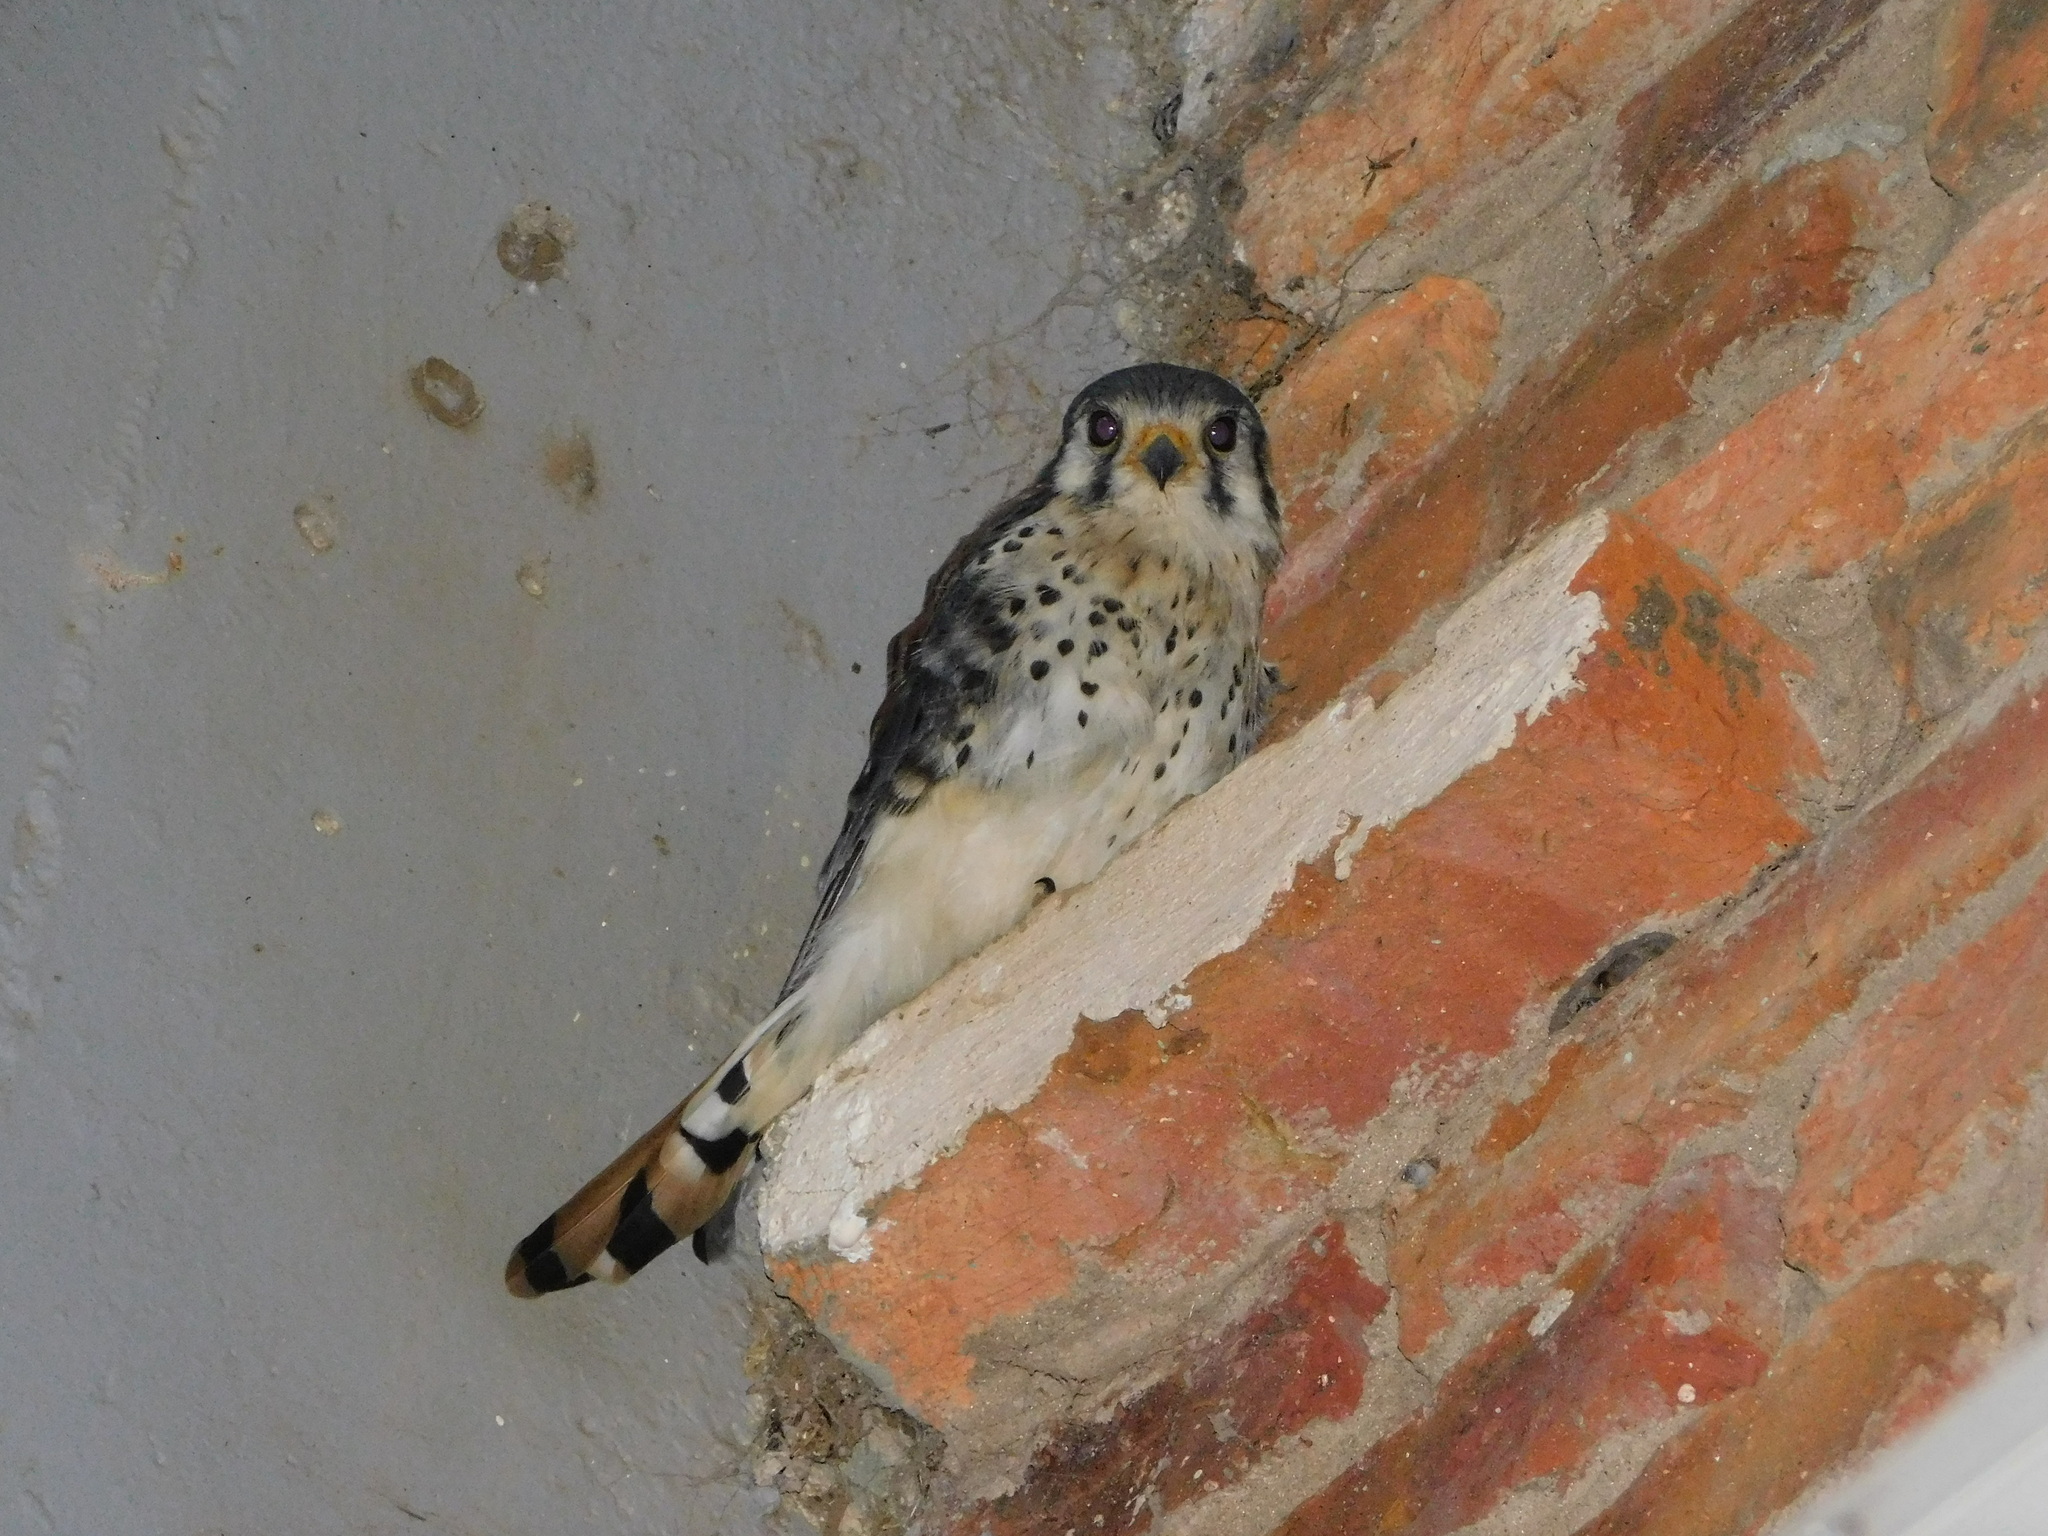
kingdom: Animalia
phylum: Chordata
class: Aves
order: Falconiformes
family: Falconidae
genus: Falco
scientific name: Falco sparverius
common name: American kestrel
